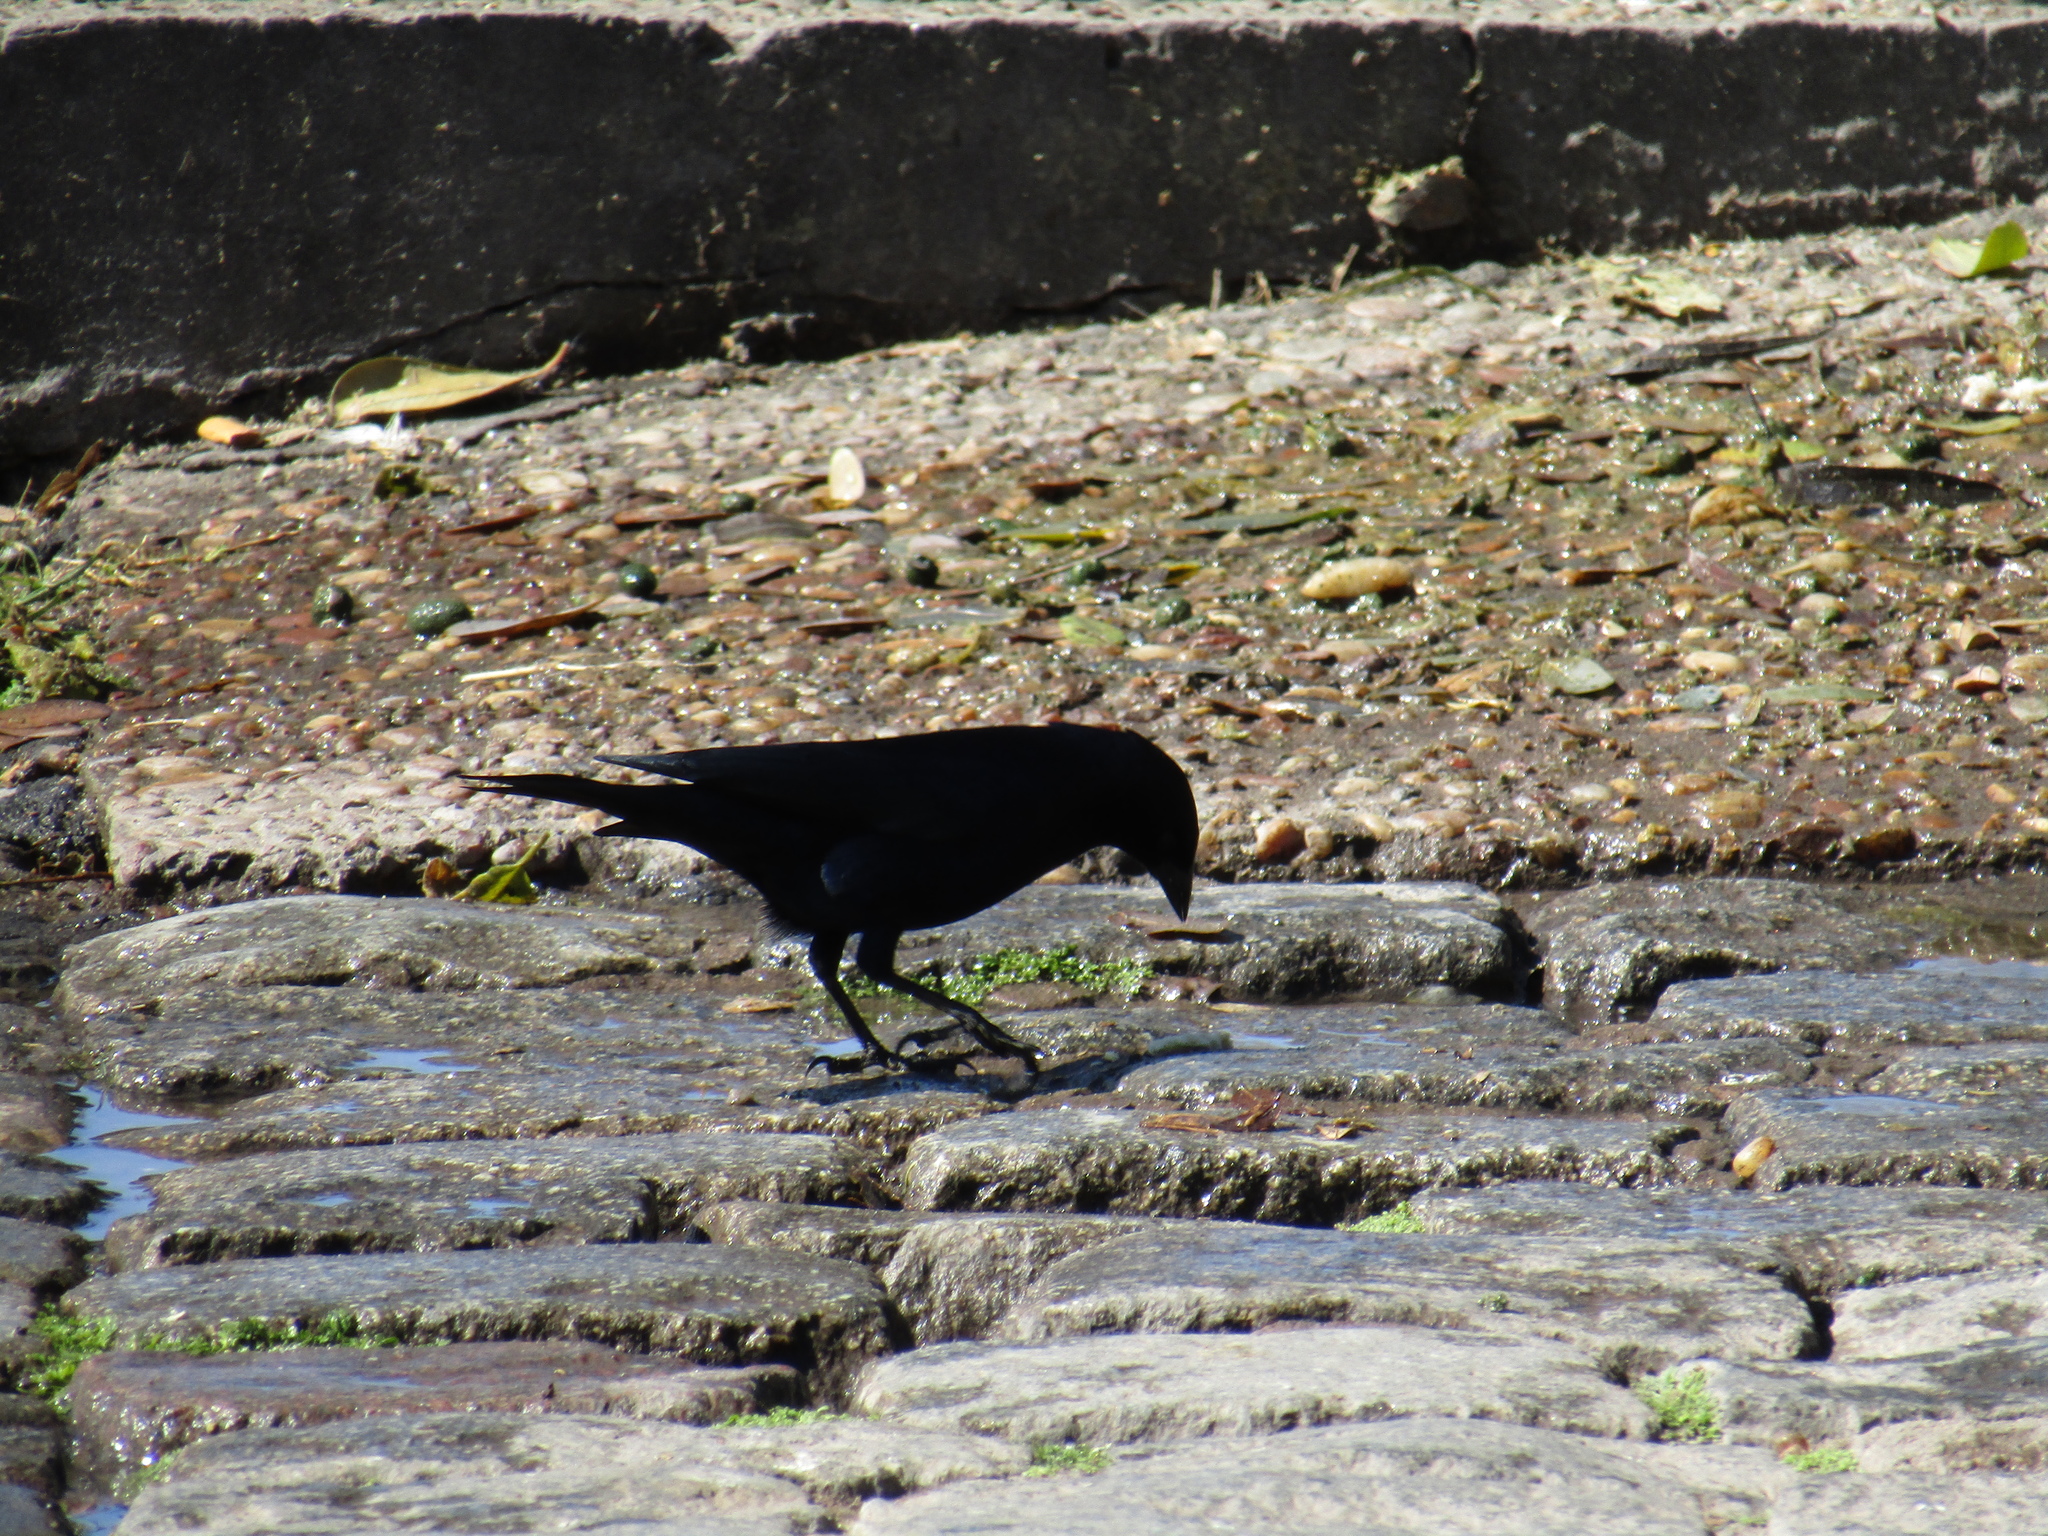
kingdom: Animalia
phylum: Chordata
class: Aves
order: Passeriformes
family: Icteridae
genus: Molothrus
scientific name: Molothrus bonariensis
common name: Shiny cowbird
